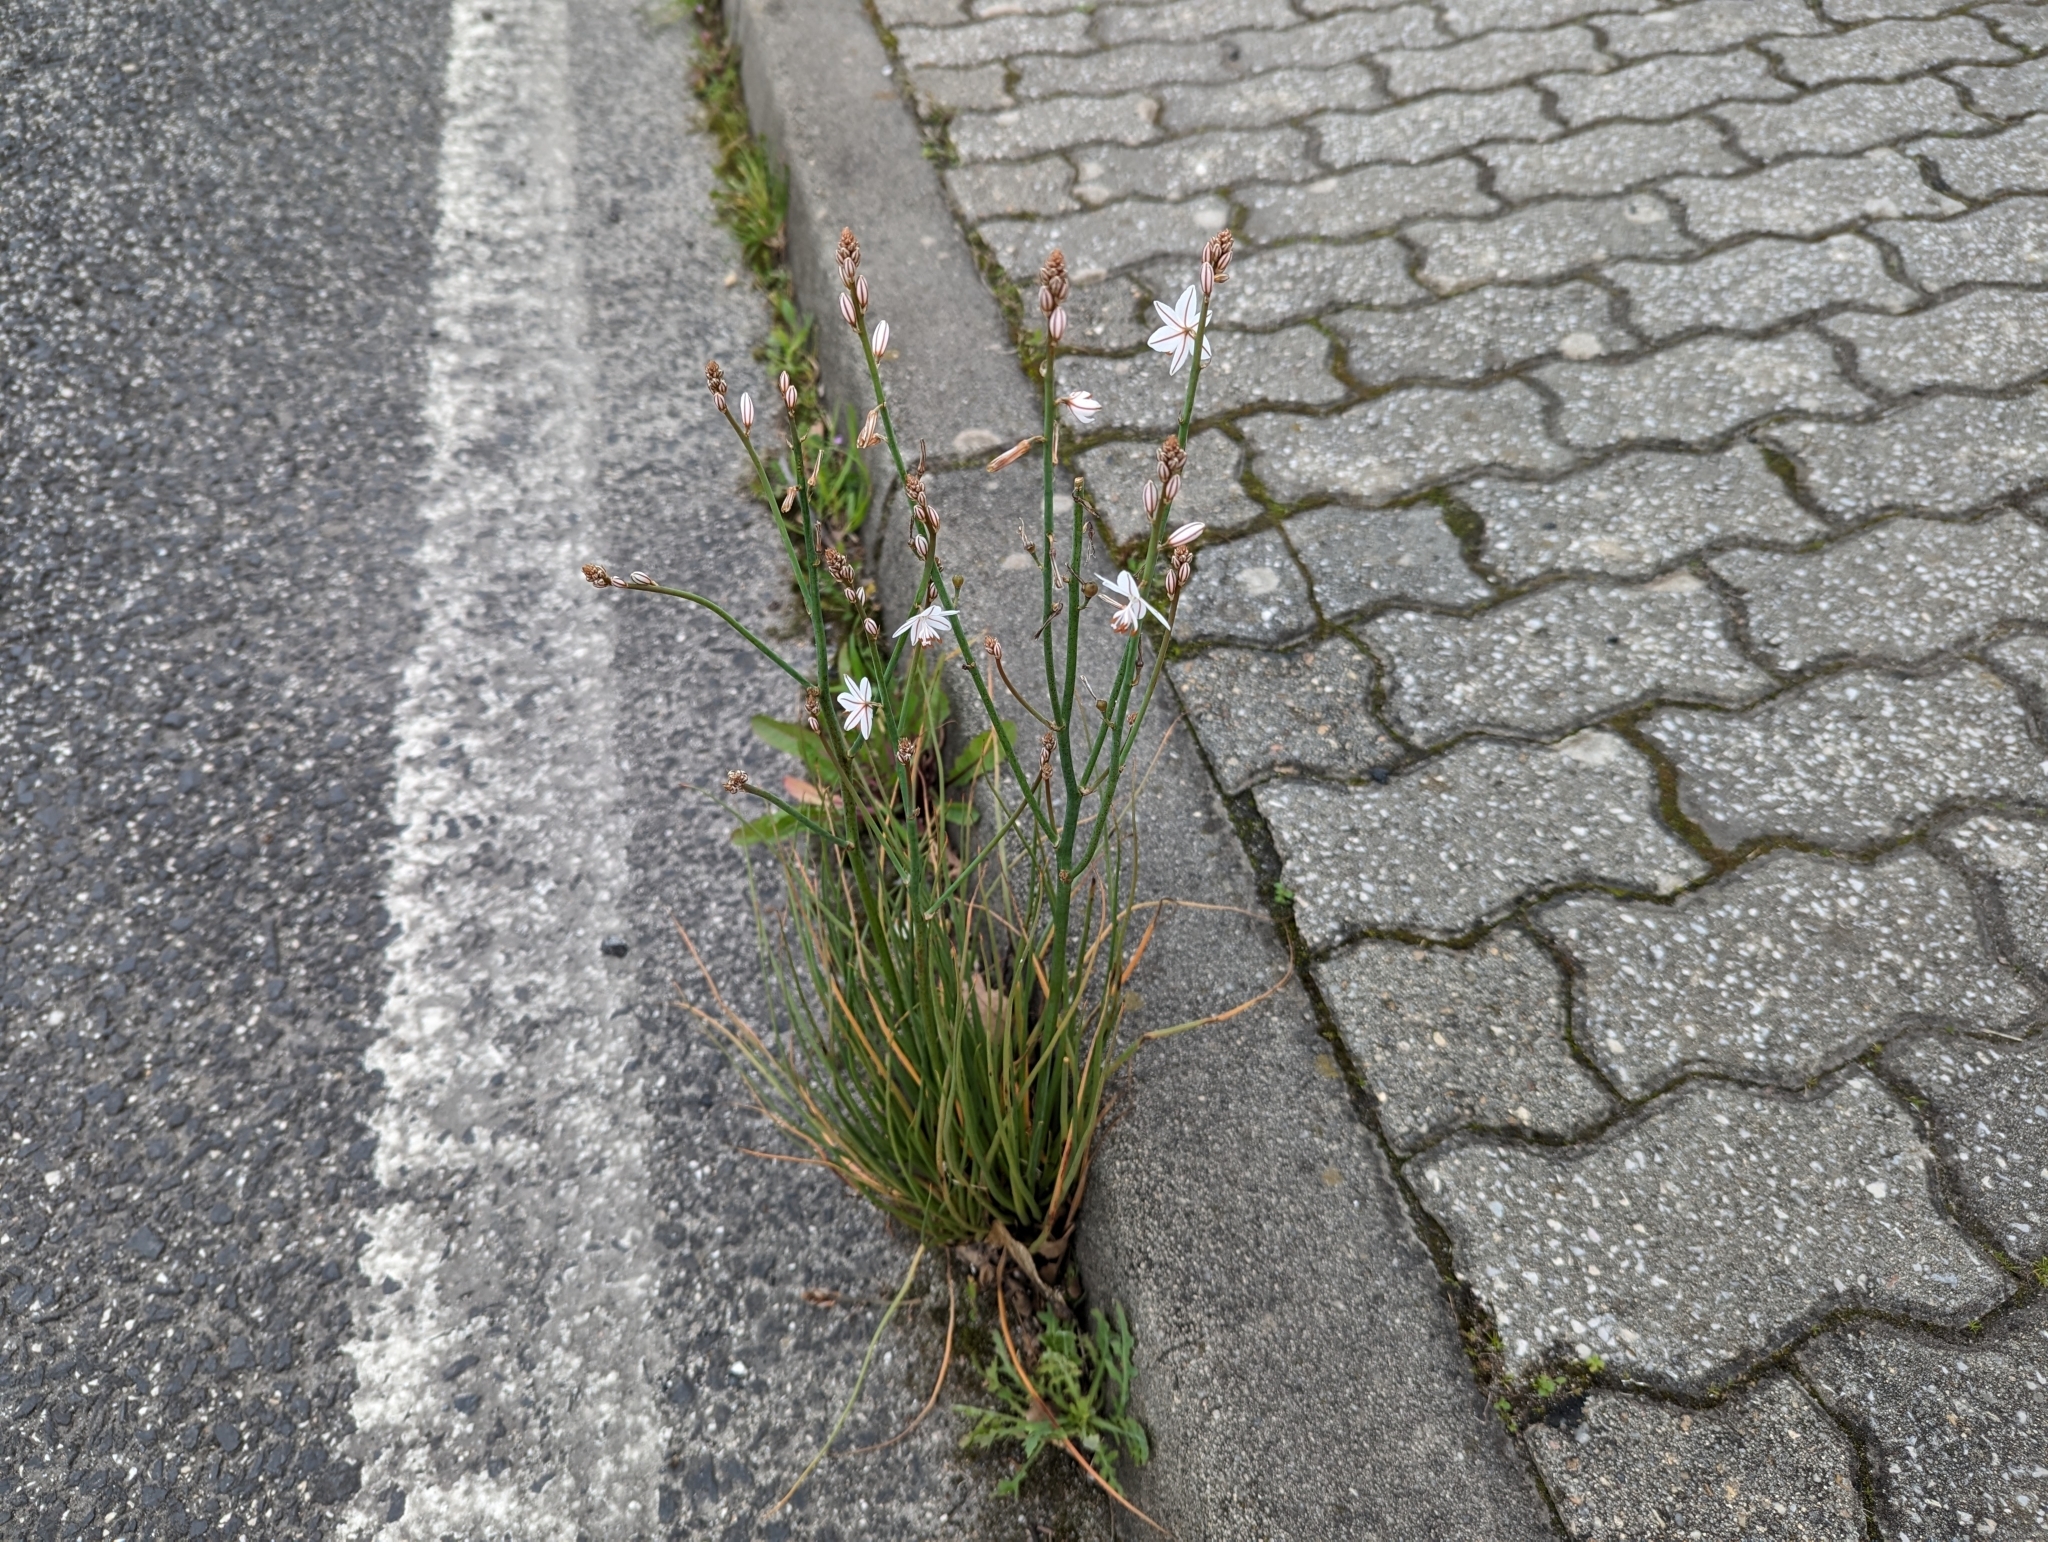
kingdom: Plantae
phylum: Tracheophyta
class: Liliopsida
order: Asparagales
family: Asphodelaceae
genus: Asphodelus
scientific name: Asphodelus fistulosus
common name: Onionweed
